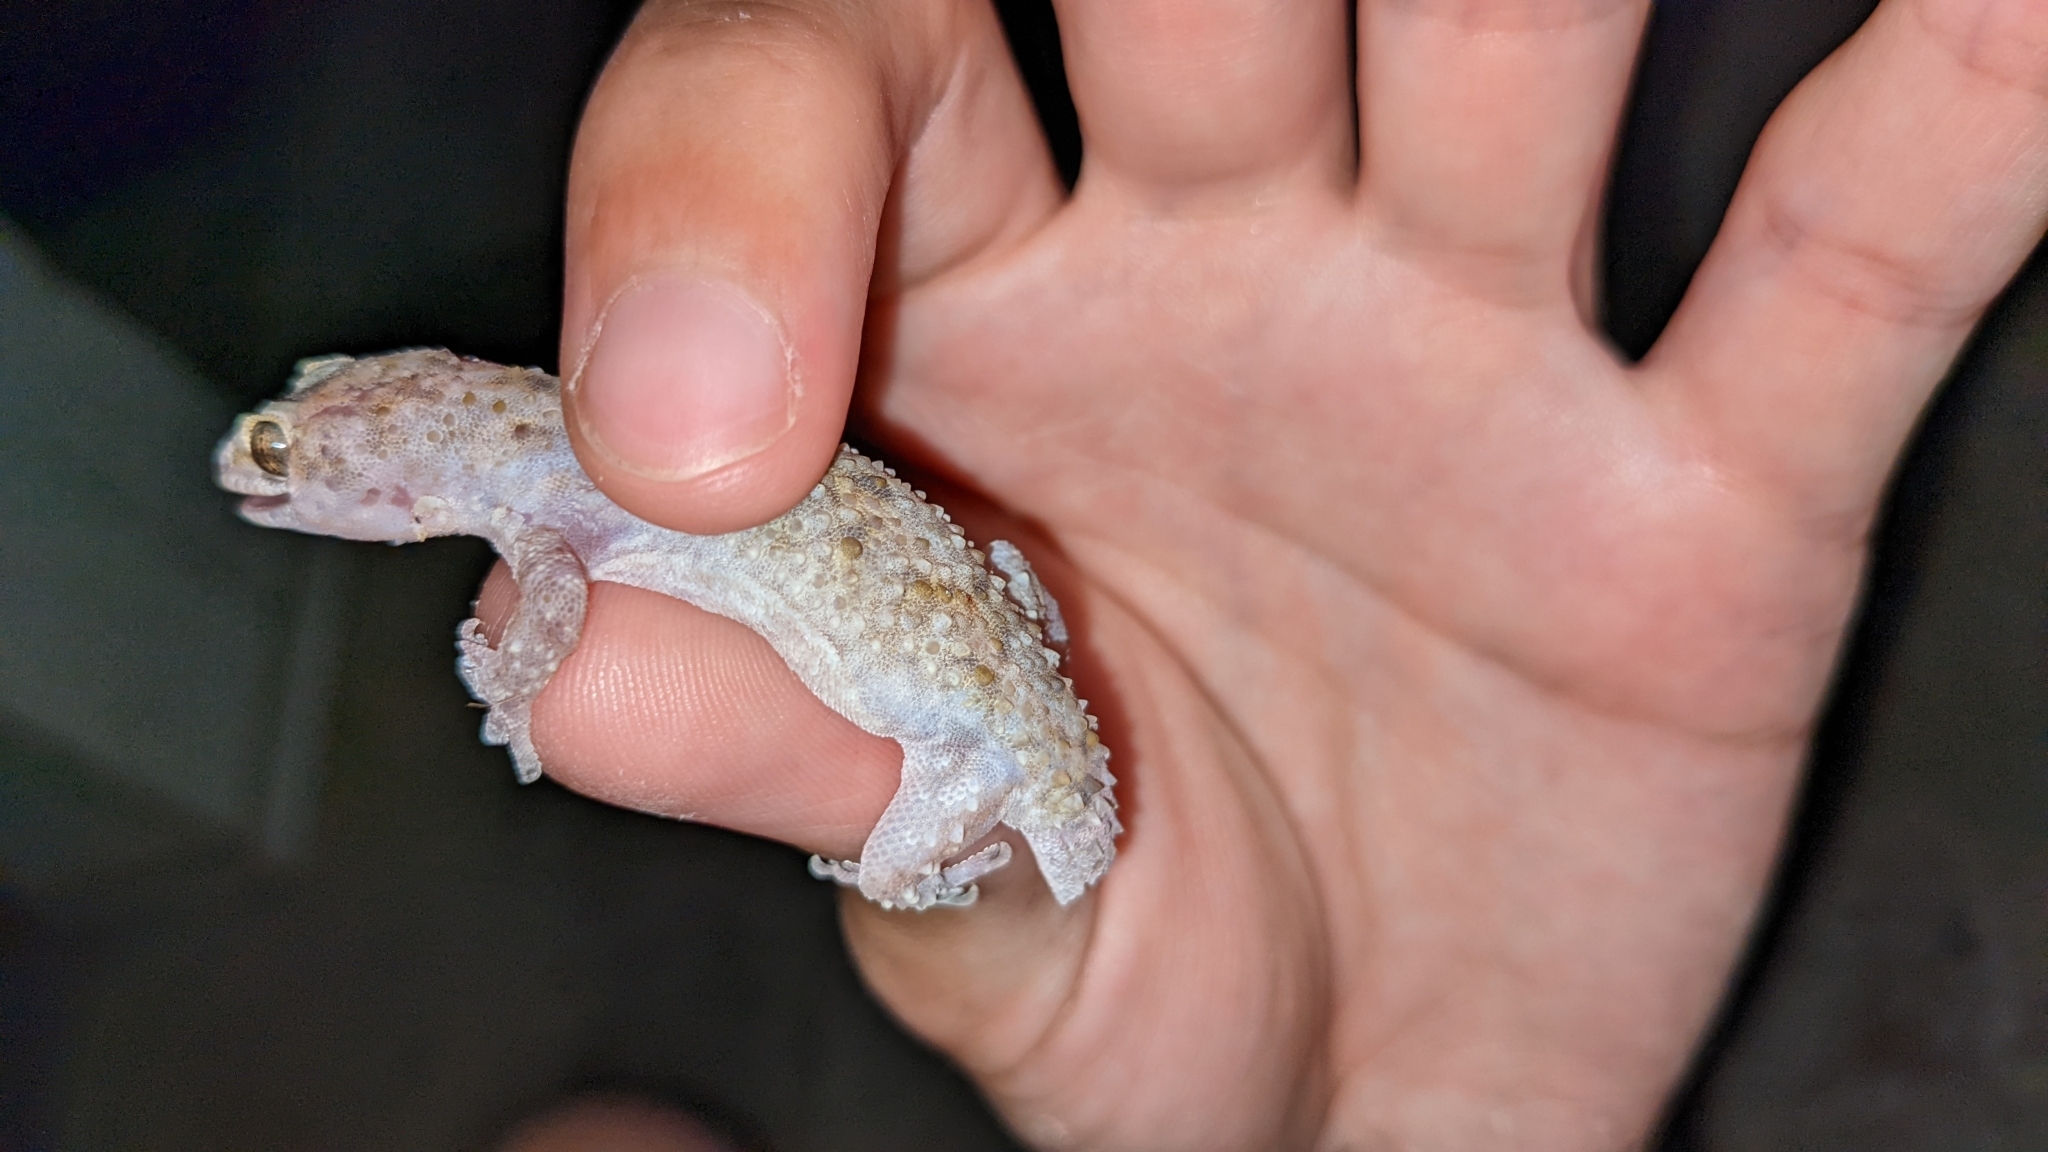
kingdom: Animalia
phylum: Chordata
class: Squamata
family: Gekkonidae
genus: Hemidactylus
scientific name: Hemidactylus turcicus
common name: Turkish gecko
